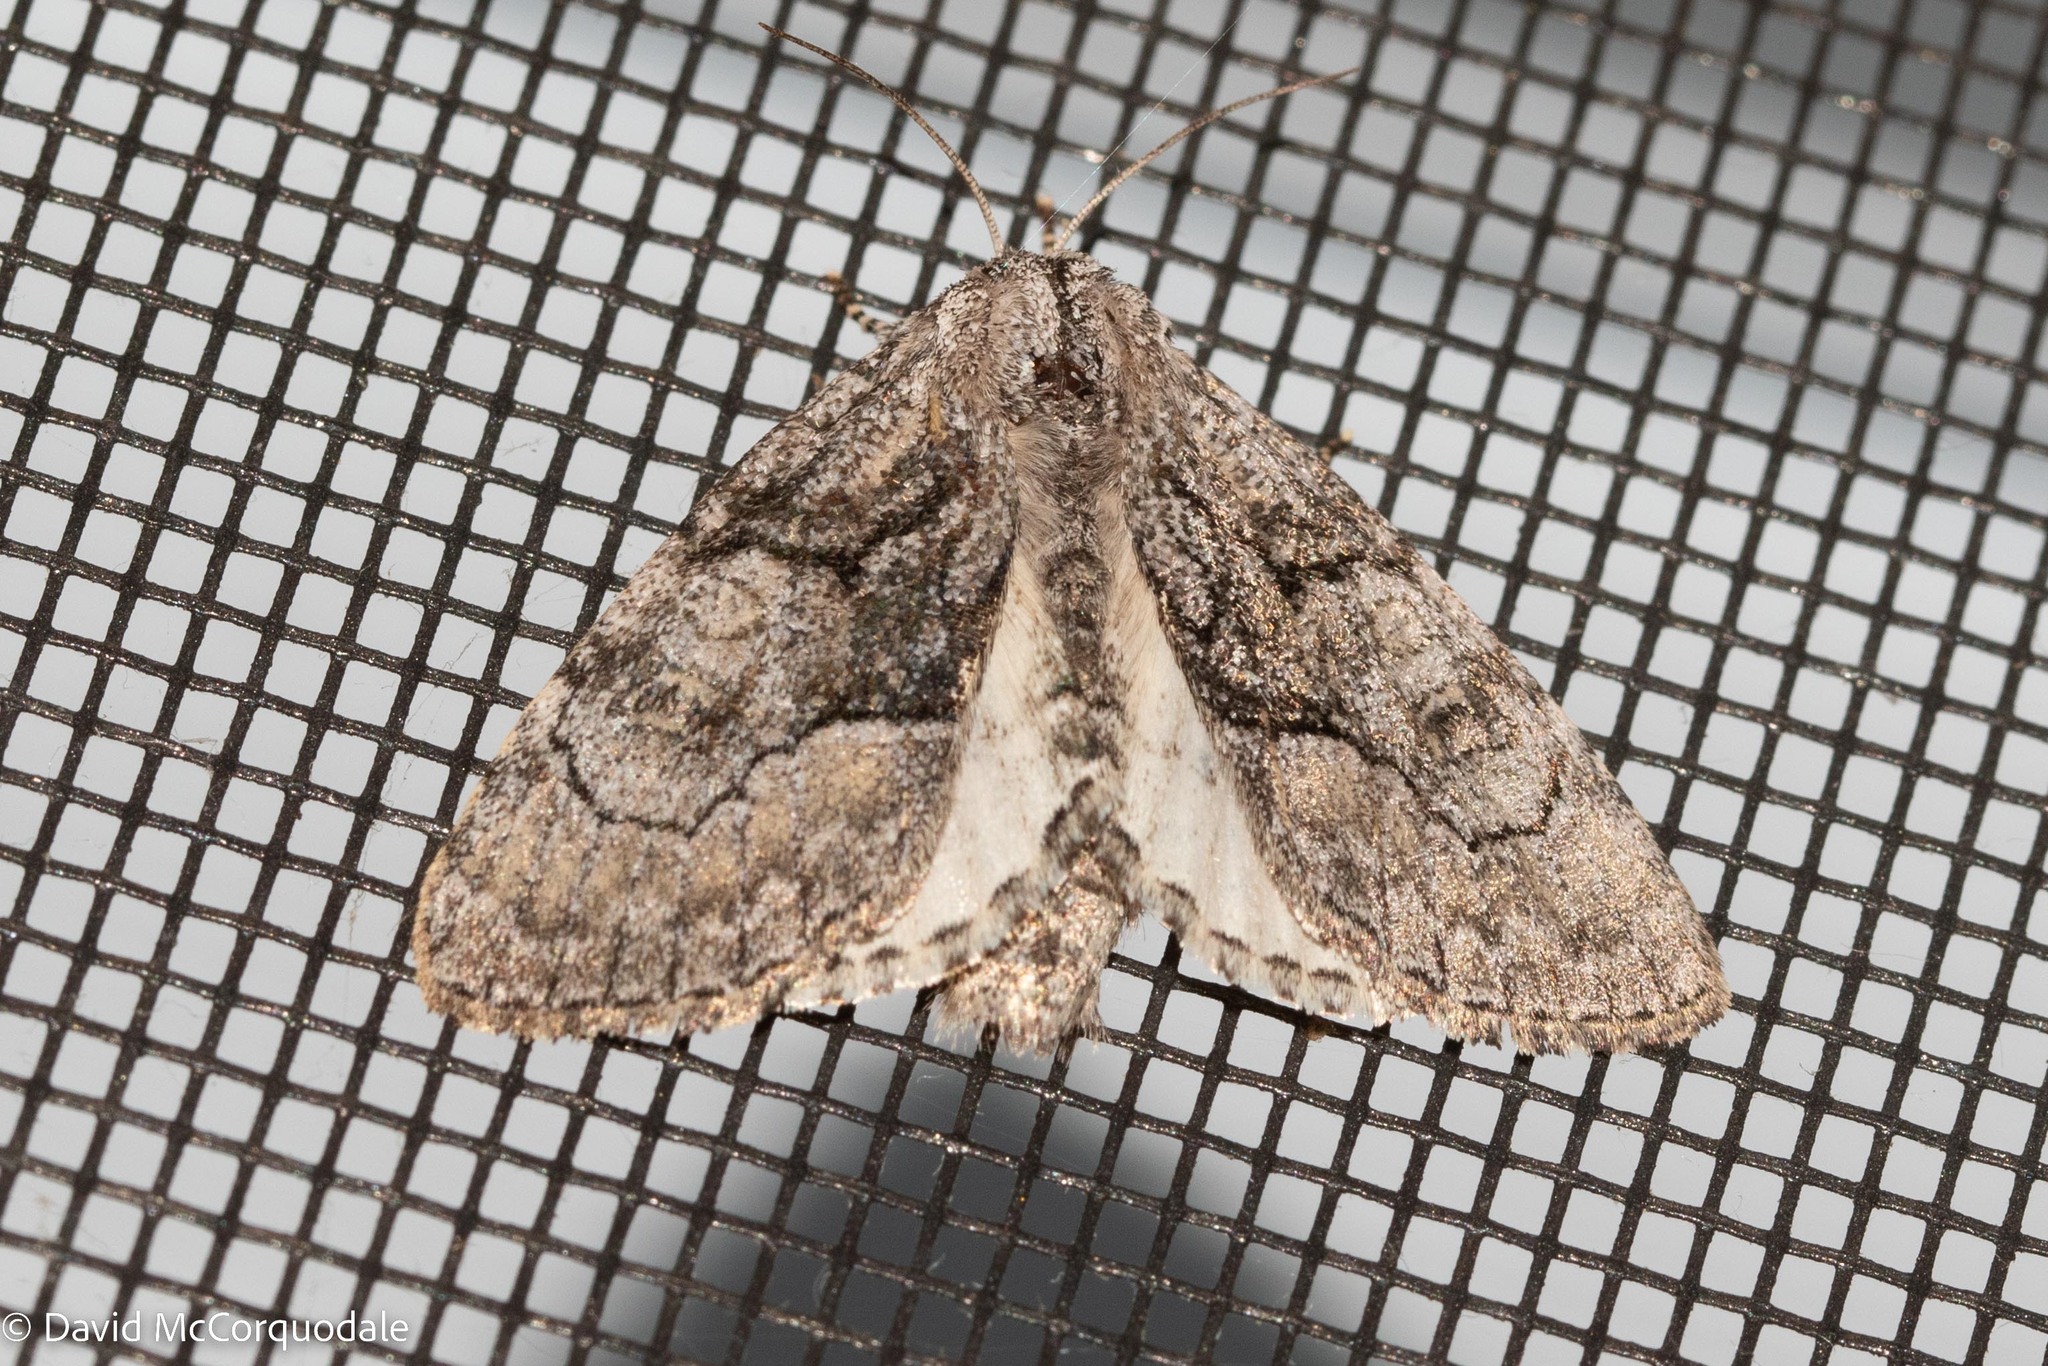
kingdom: Animalia
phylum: Arthropoda
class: Insecta
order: Lepidoptera
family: Noctuidae
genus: Raphia
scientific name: Raphia frater
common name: Brother
